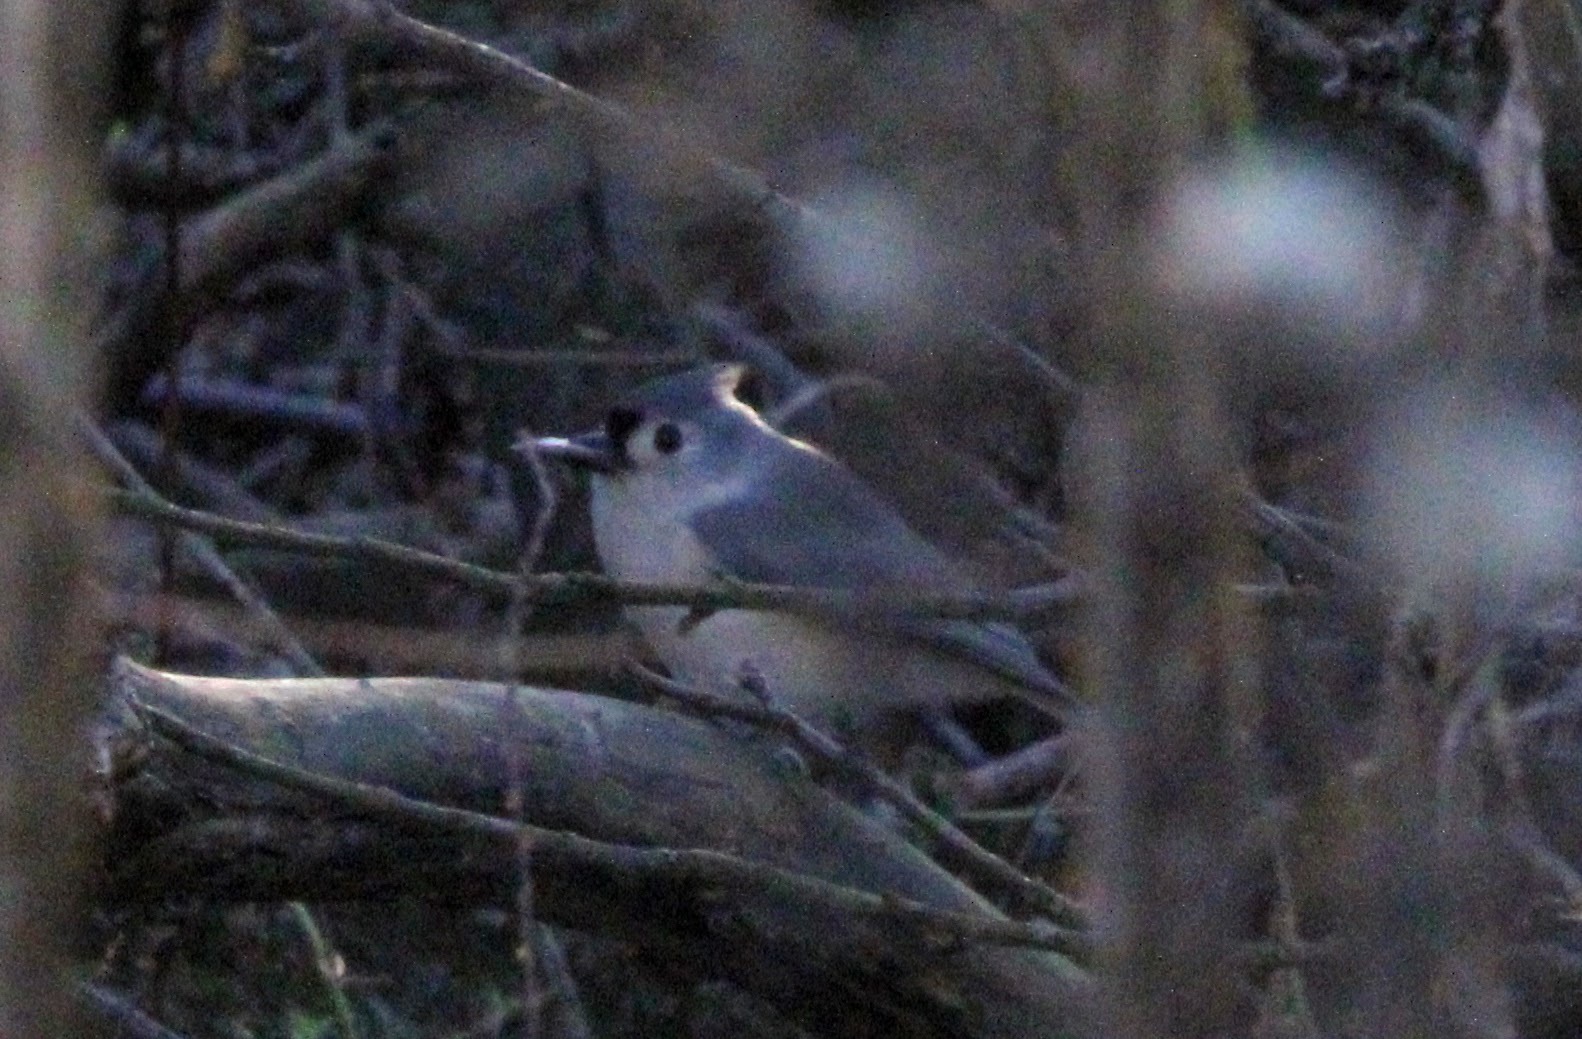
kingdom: Animalia
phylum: Chordata
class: Aves
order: Passeriformes
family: Paridae
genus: Baeolophus
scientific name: Baeolophus bicolor
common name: Tufted titmouse
